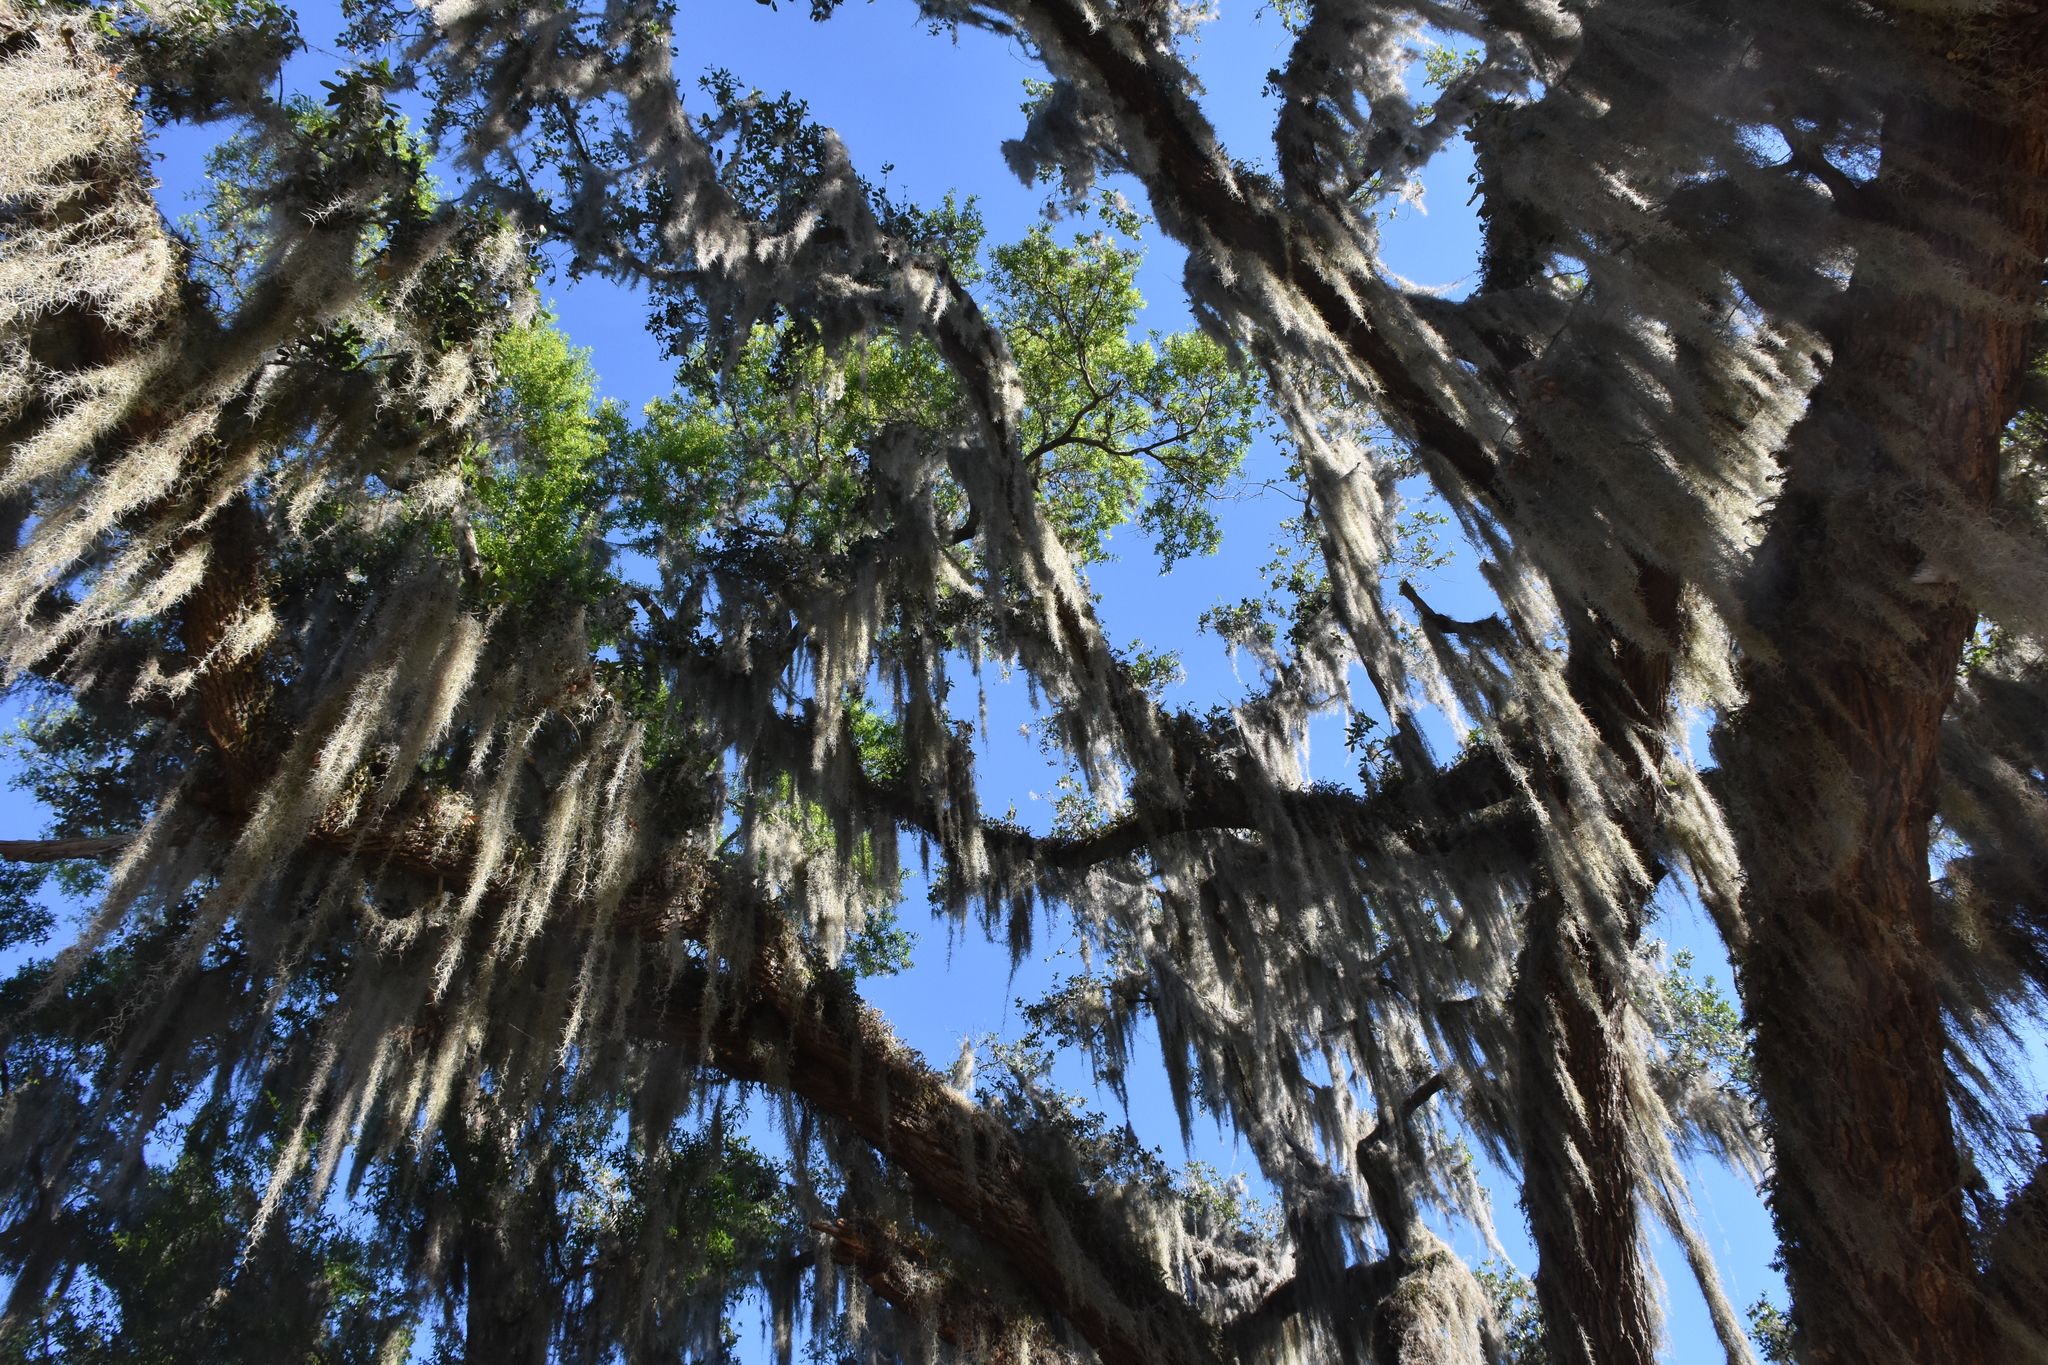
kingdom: Plantae
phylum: Tracheophyta
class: Liliopsida
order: Poales
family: Bromeliaceae
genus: Tillandsia
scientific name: Tillandsia usneoides
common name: Spanish moss
